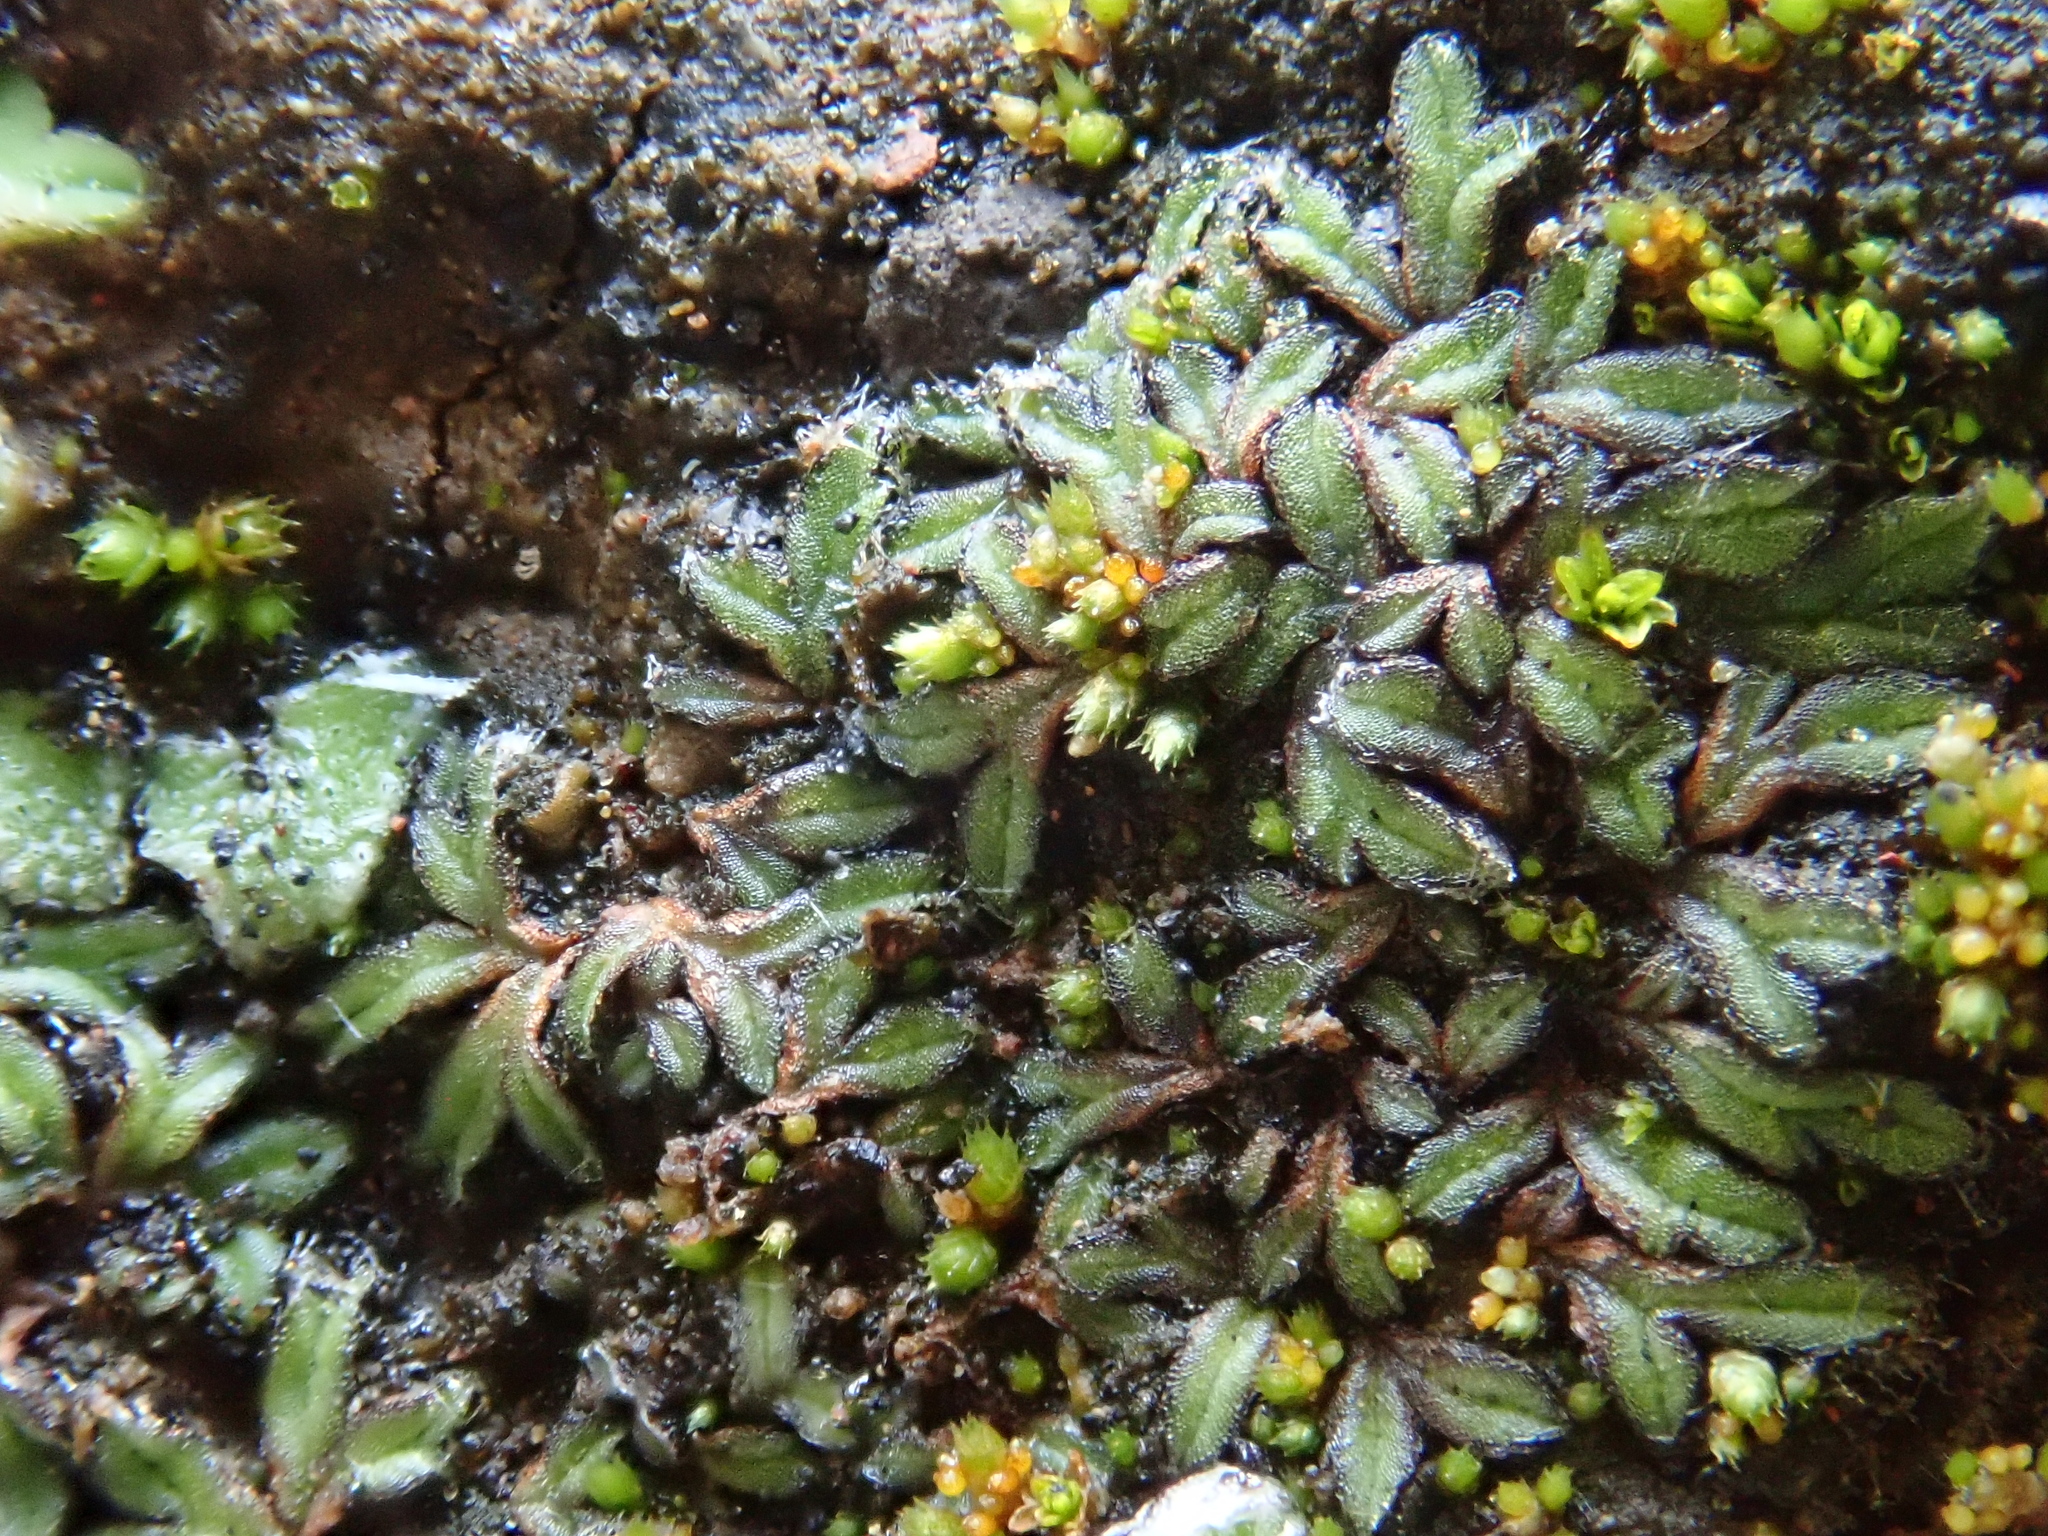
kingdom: Plantae
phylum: Marchantiophyta
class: Marchantiopsida
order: Marchantiales
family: Ricciaceae
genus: Riccia
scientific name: Riccia nigrella
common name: Black crystalwort
